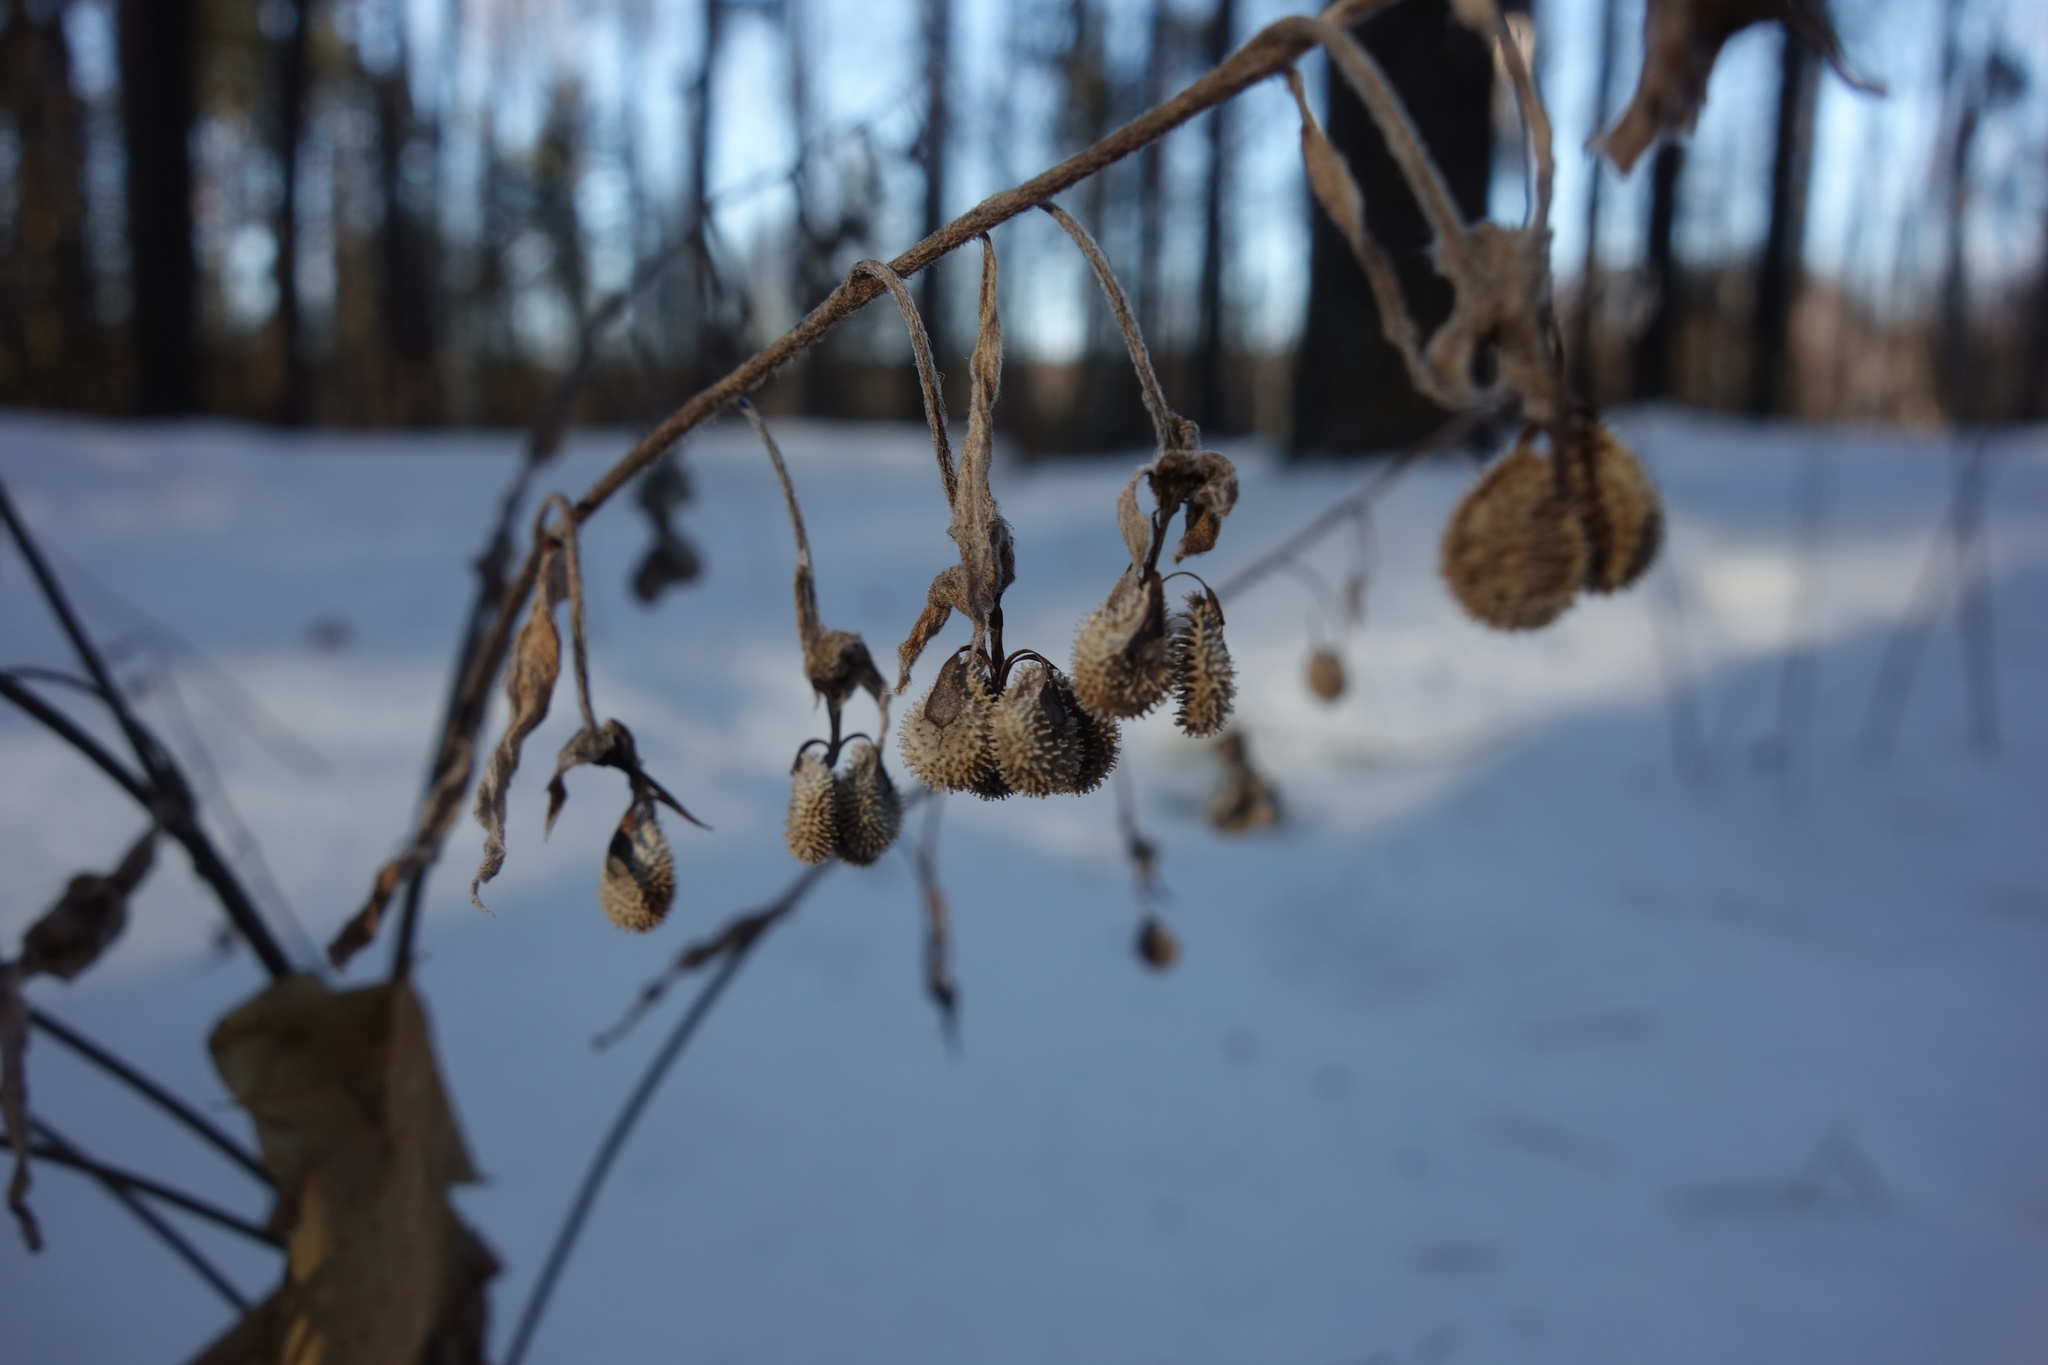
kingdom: Plantae
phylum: Tracheophyta
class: Magnoliopsida
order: Boraginales
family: Boraginaceae
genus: Cynoglossum
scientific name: Cynoglossum officinale
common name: Hound's-tongue
